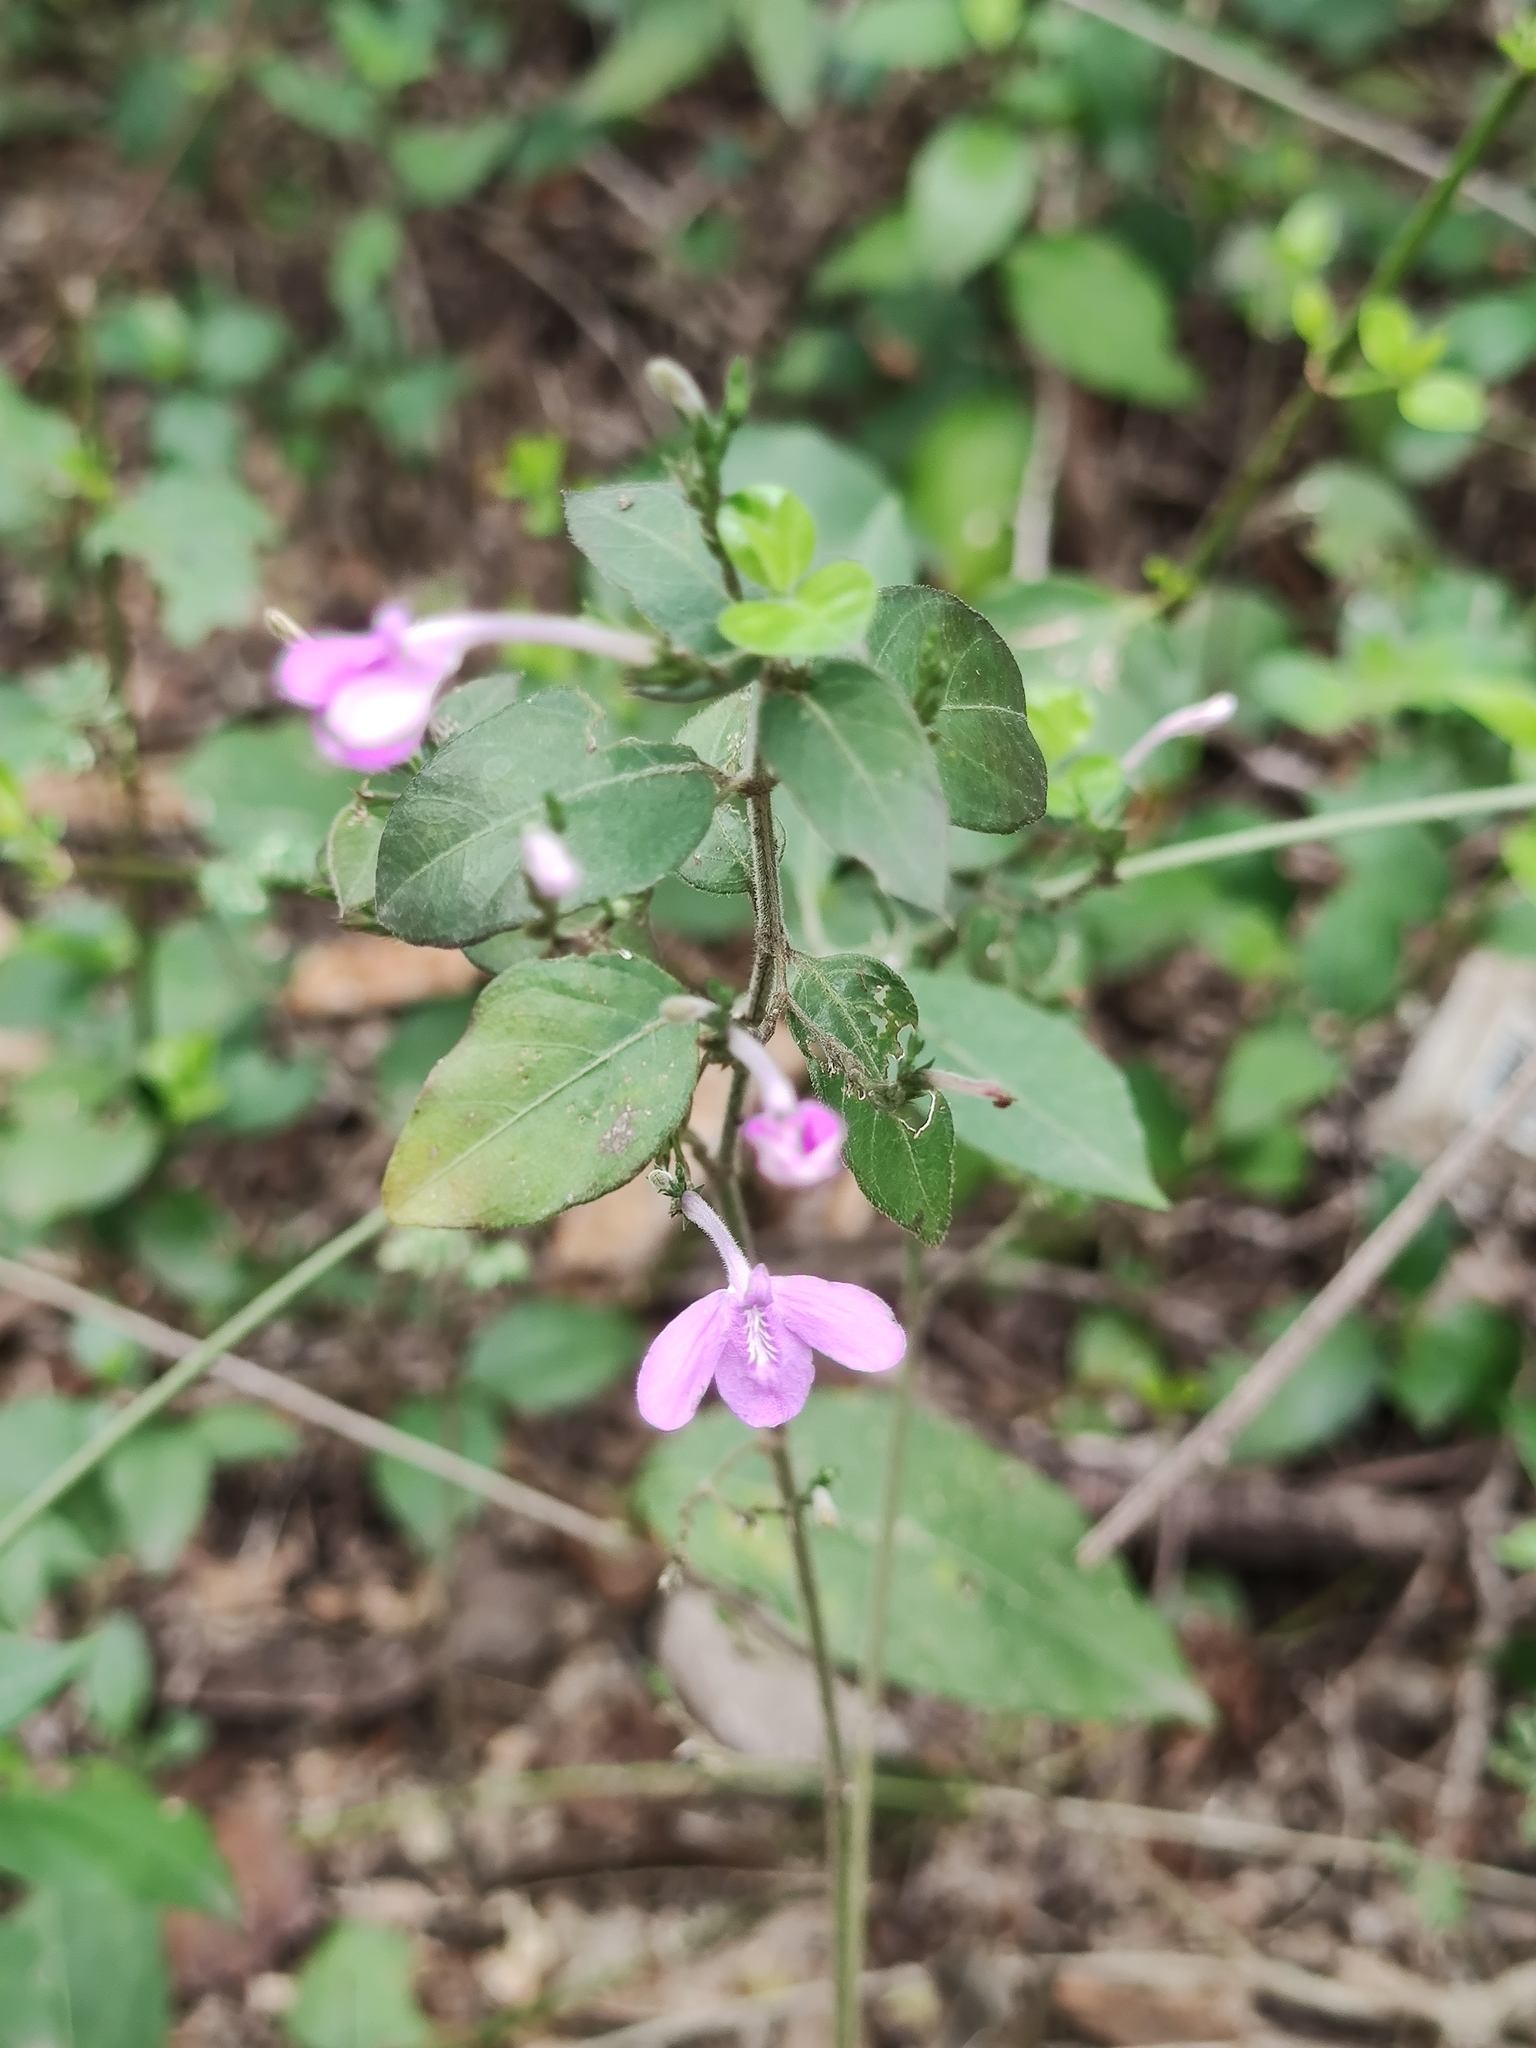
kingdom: Plantae
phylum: Tracheophyta
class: Magnoliopsida
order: Lamiales
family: Acanthaceae
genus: Justicia
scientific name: Justicia pilosella
